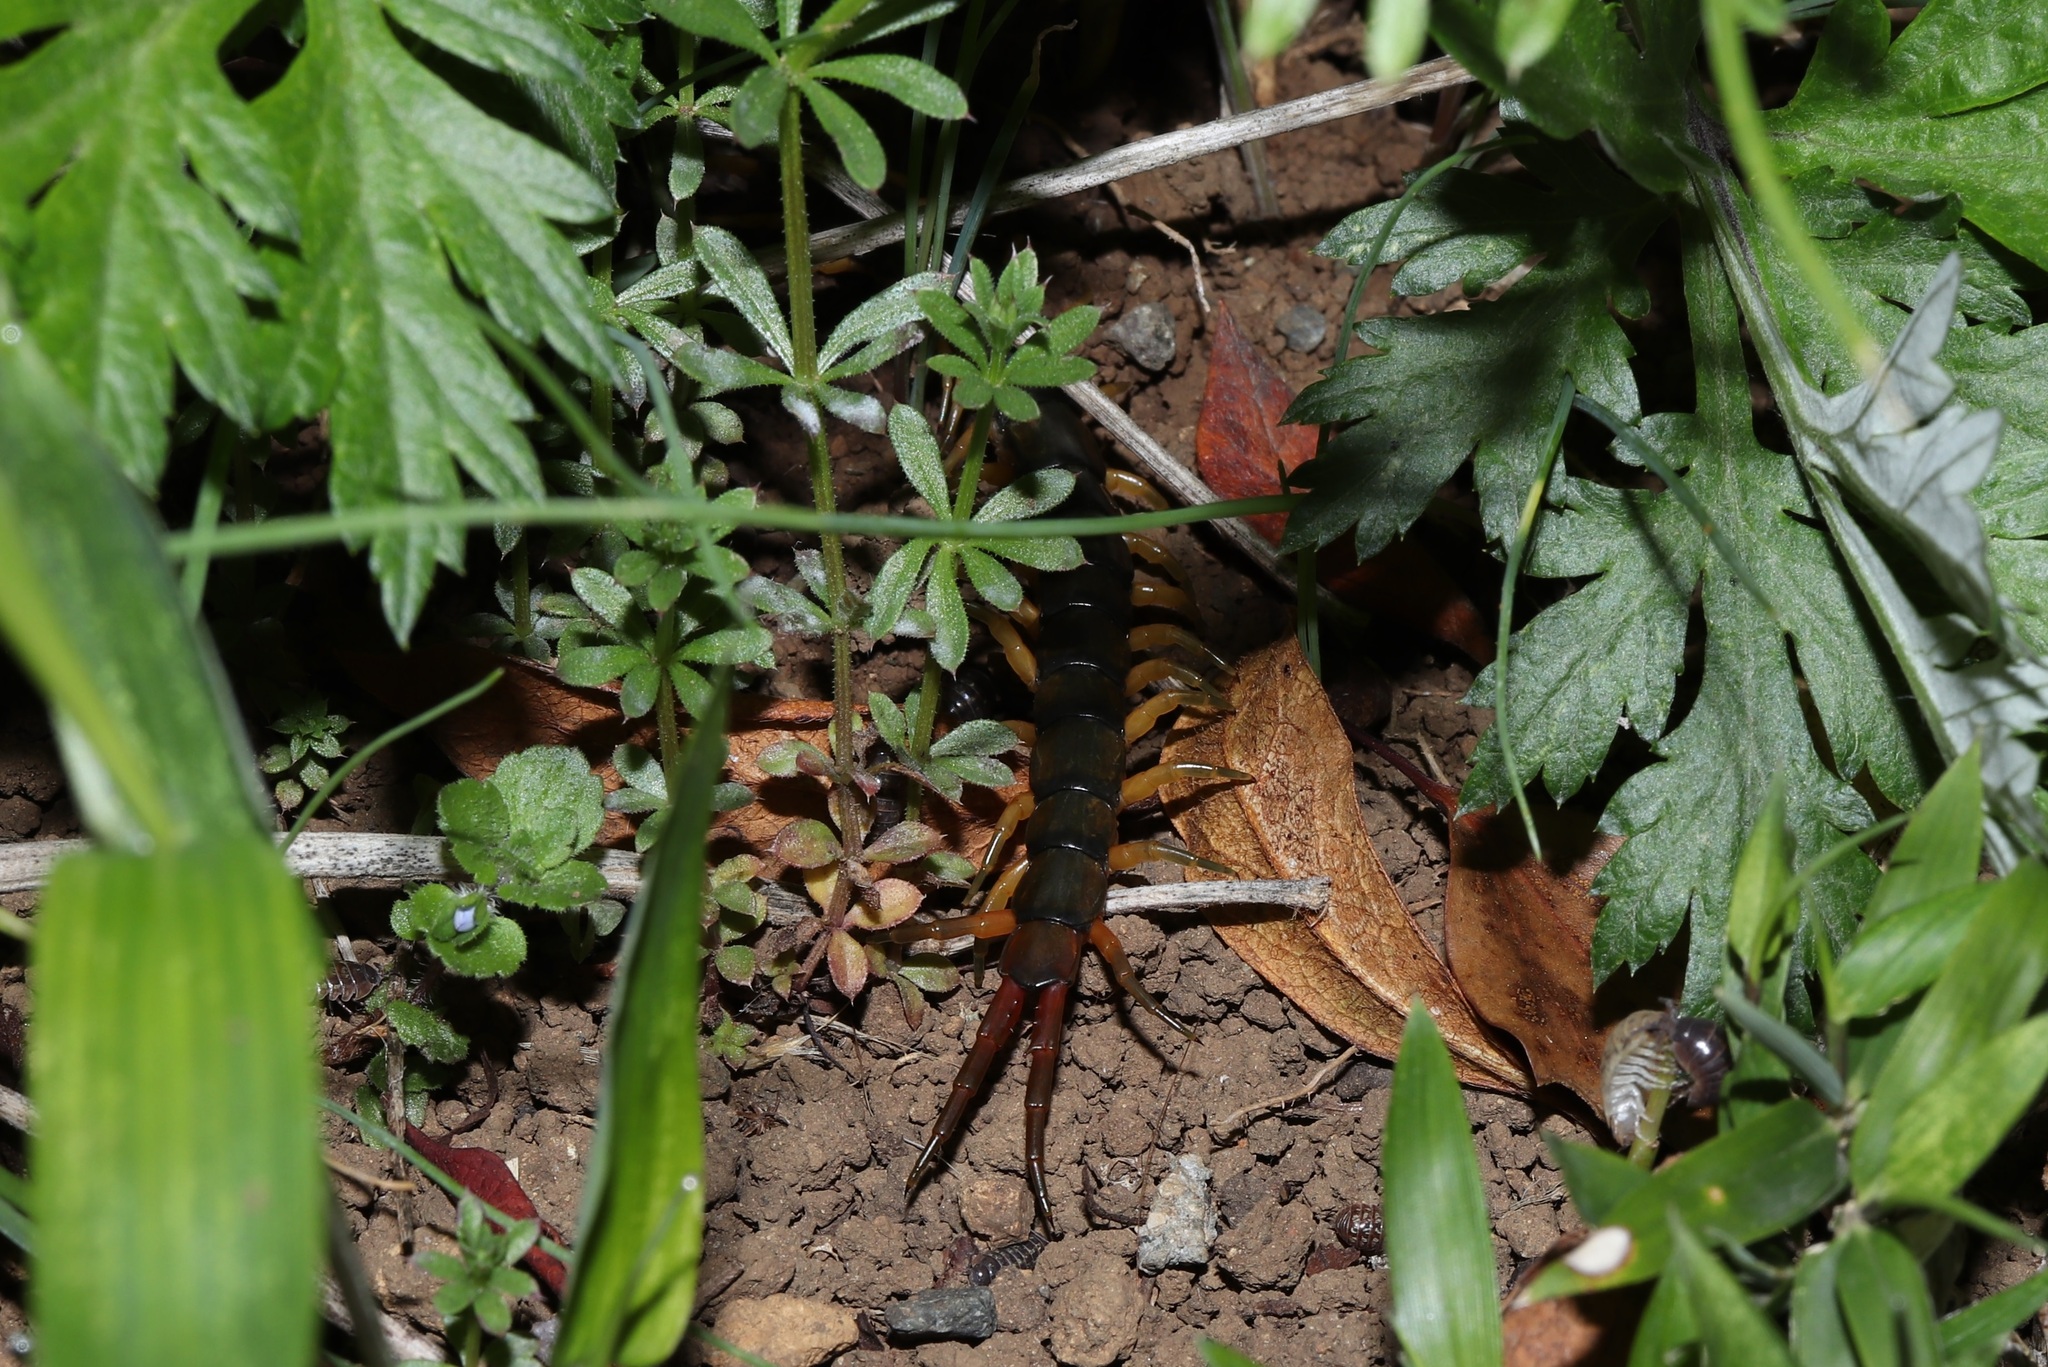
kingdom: Animalia
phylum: Arthropoda
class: Chilopoda
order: Scolopendromorpha
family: Scolopendridae
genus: Scolopendra
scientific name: Scolopendra japonica
